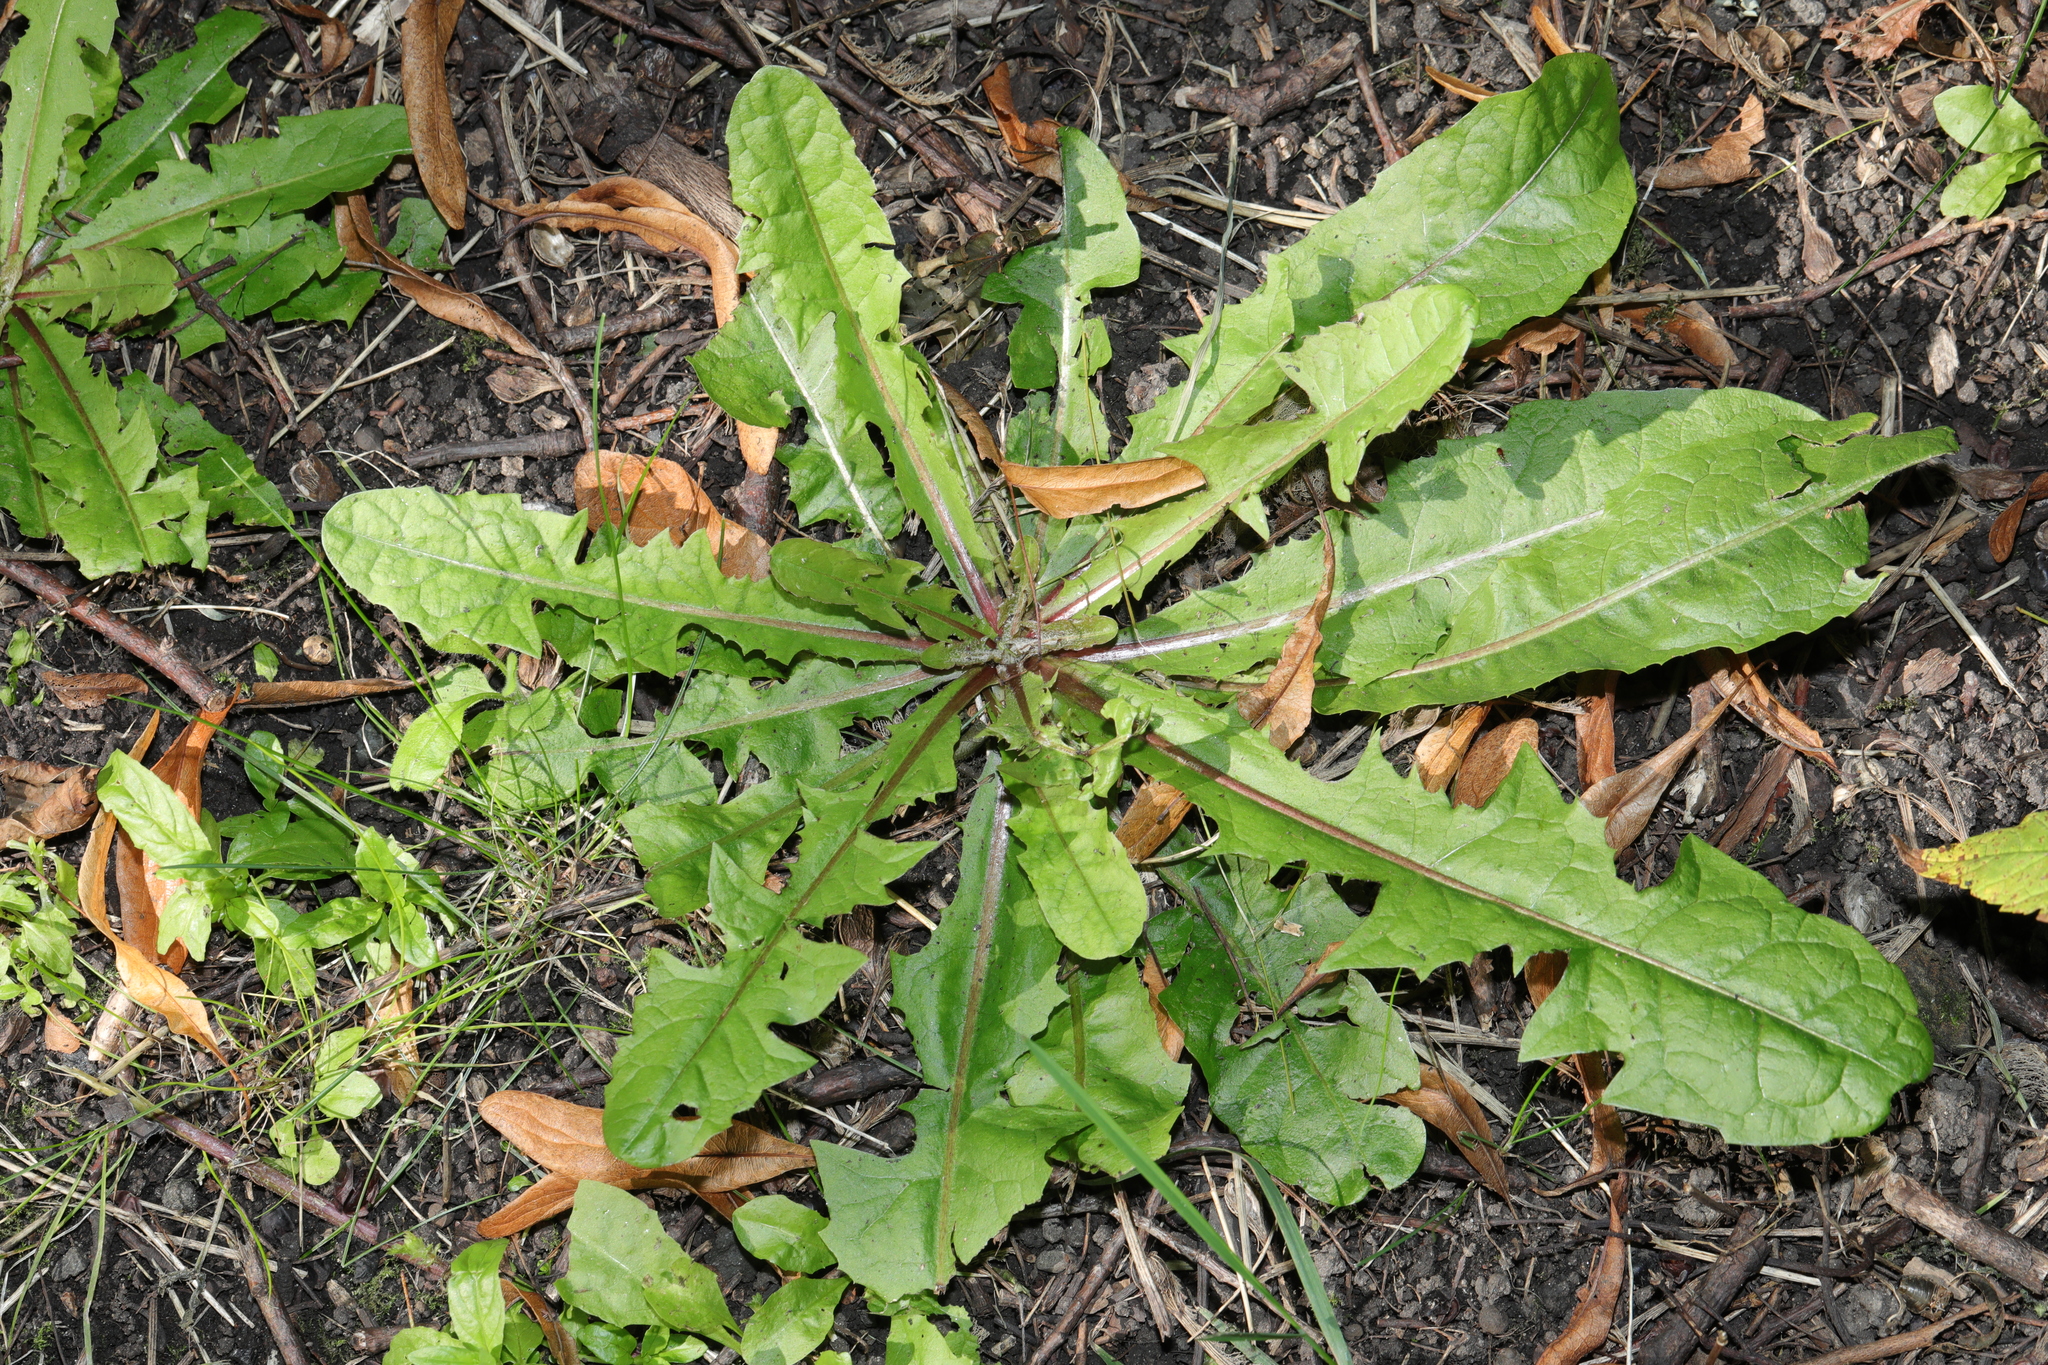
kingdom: Plantae
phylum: Tracheophyta
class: Magnoliopsida
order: Asterales
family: Asteraceae
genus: Taraxacum
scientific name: Taraxacum officinale
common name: Common dandelion
